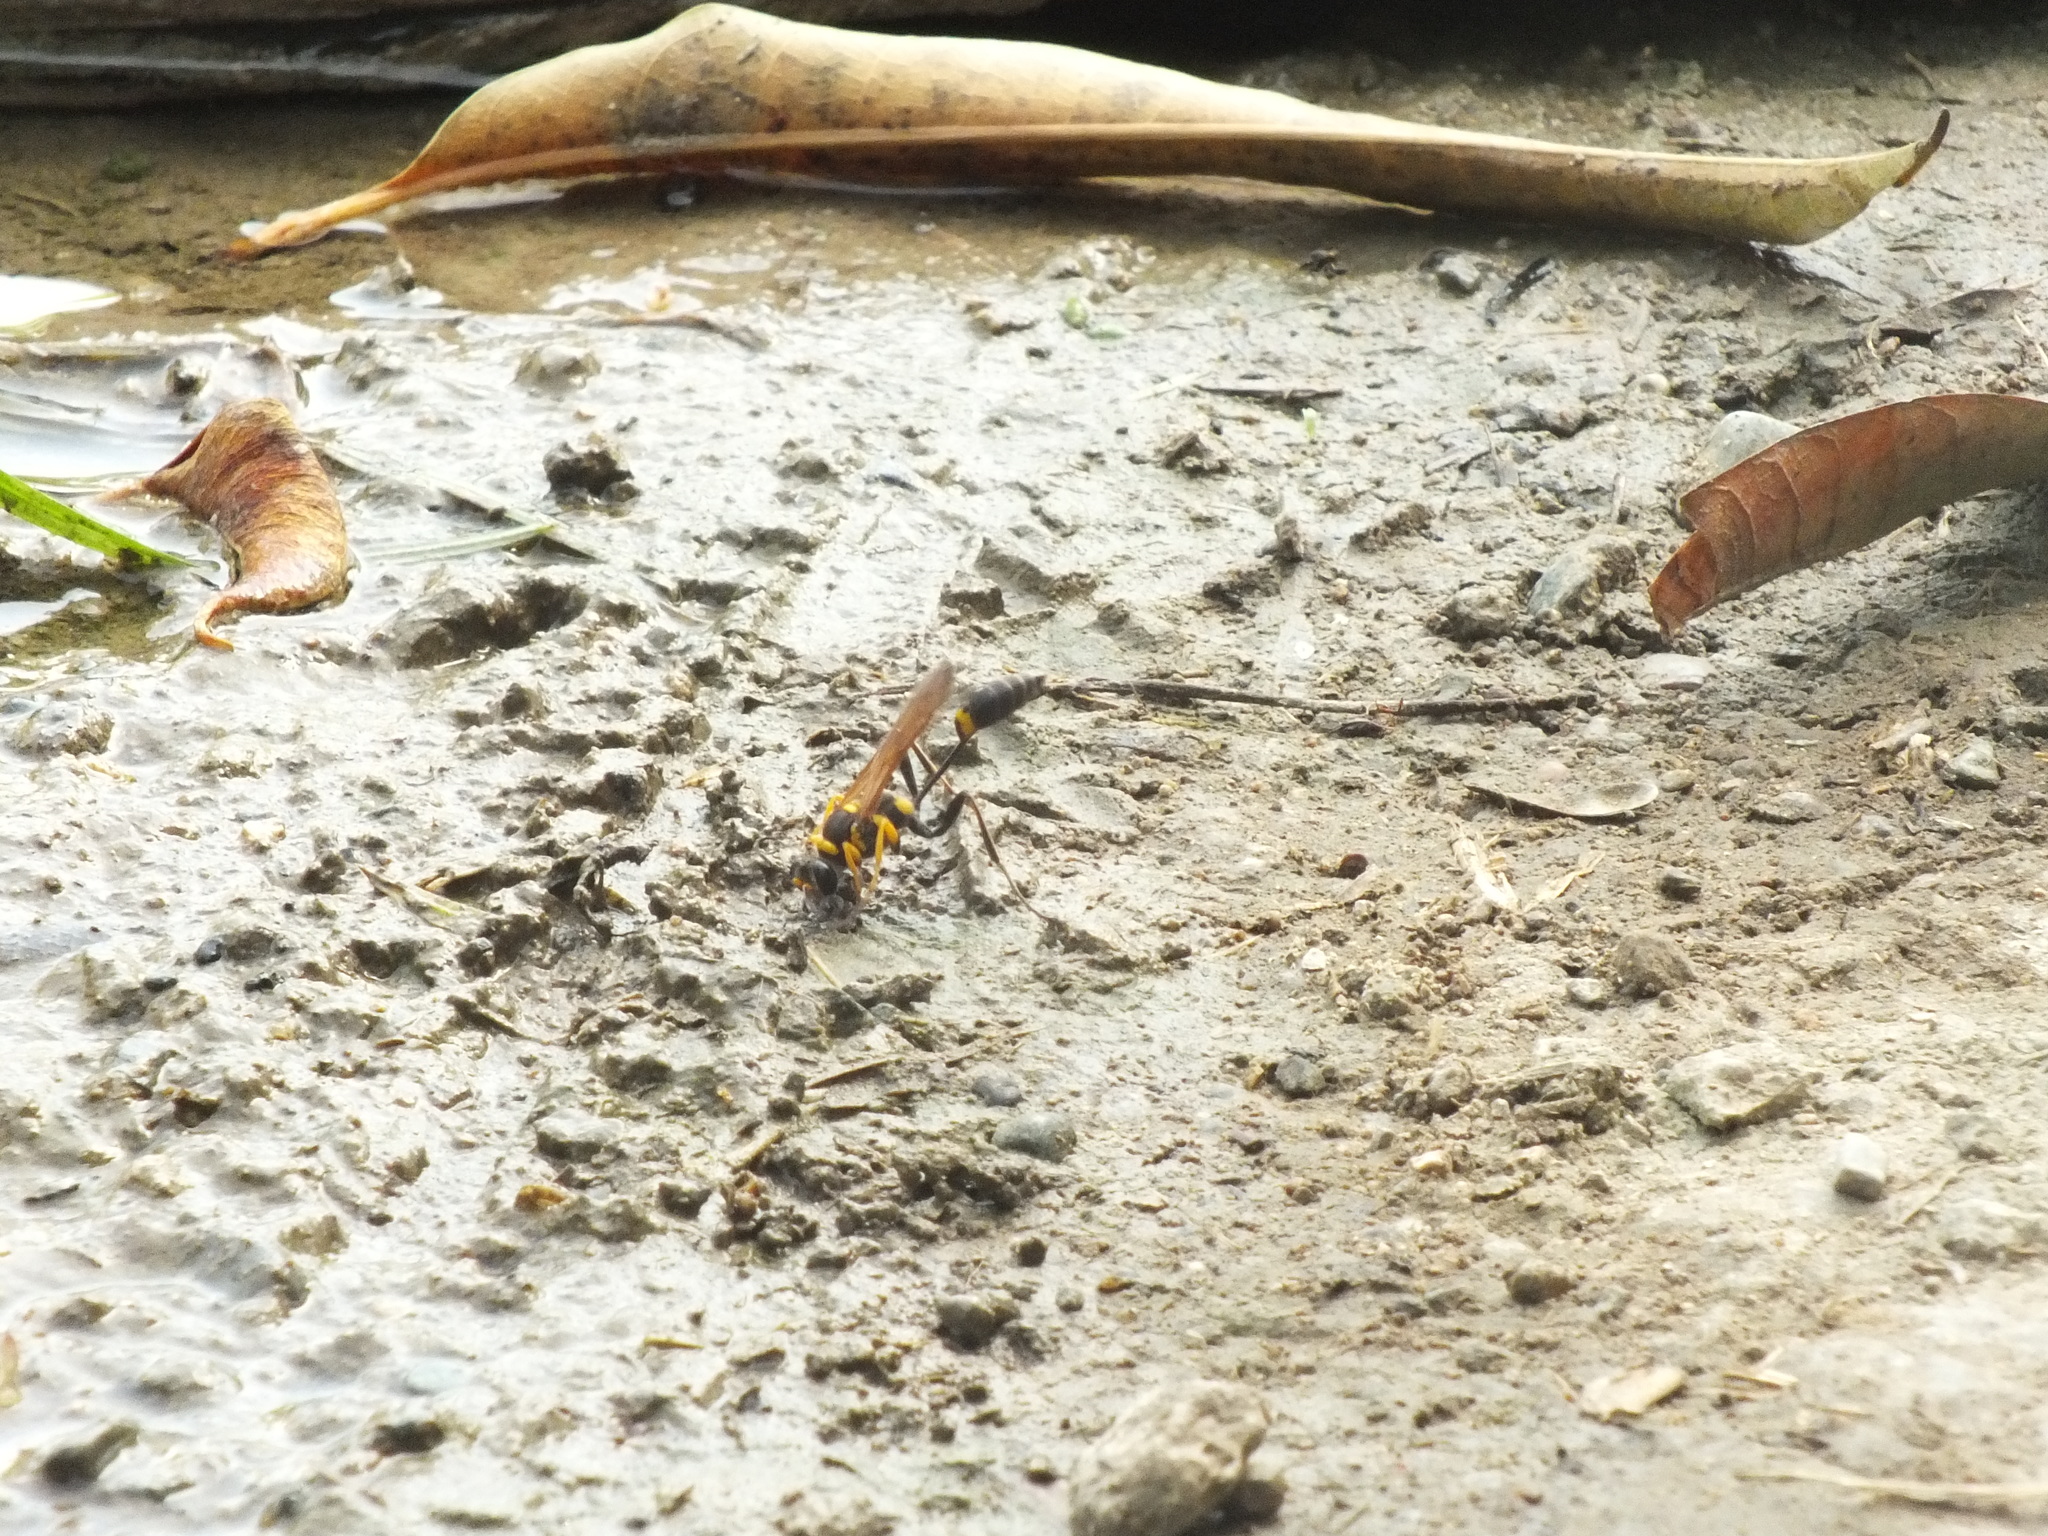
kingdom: Animalia
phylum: Arthropoda
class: Insecta
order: Hymenoptera
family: Sphecidae
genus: Sceliphron
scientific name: Sceliphron assimile
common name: Clayman's mud dauber
